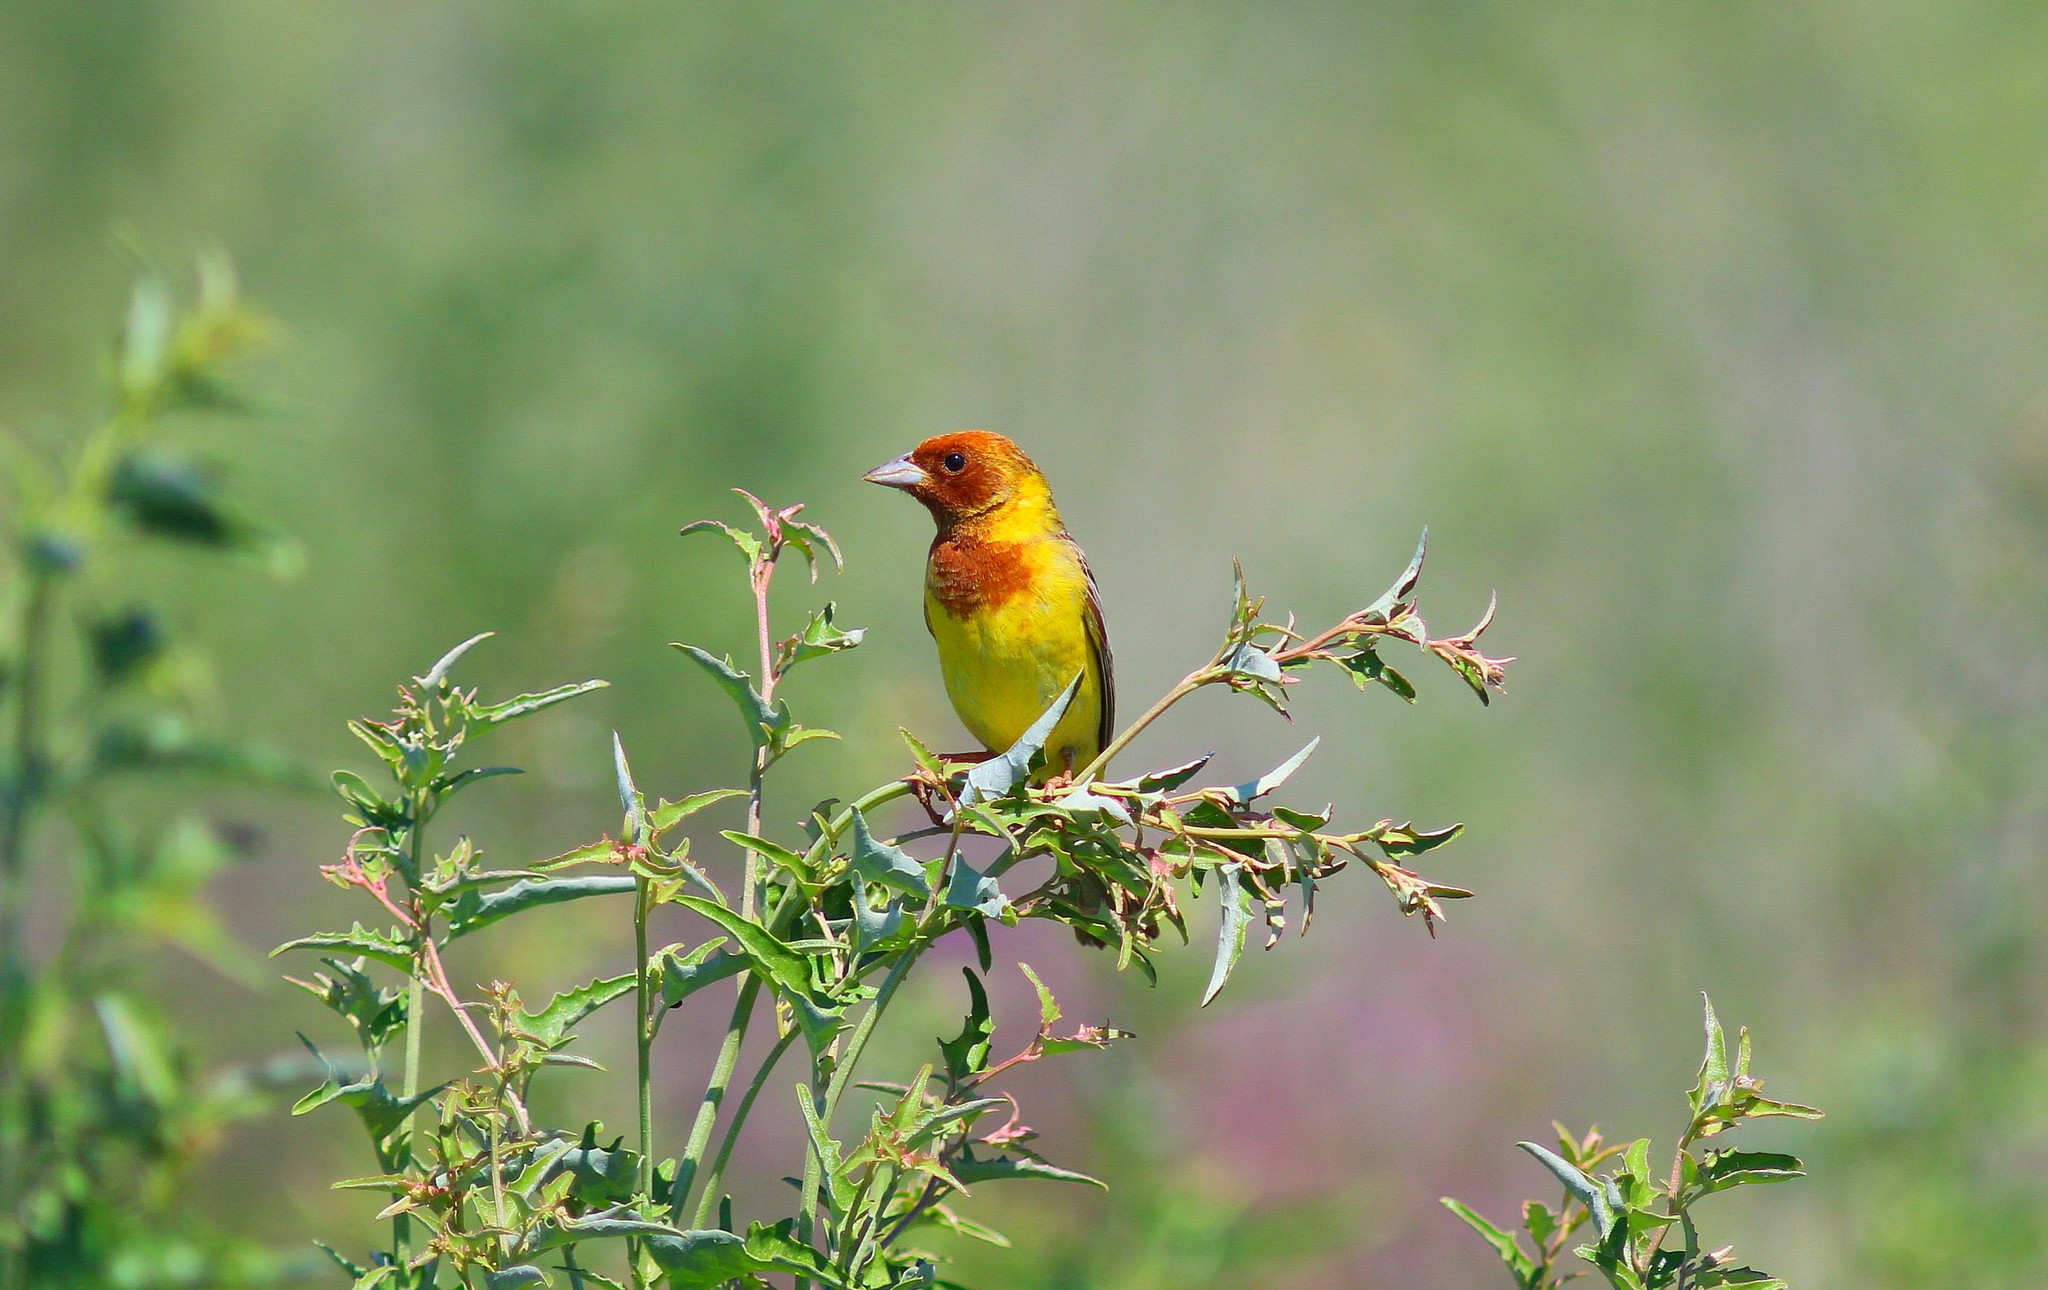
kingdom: Animalia
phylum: Chordata
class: Aves
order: Passeriformes
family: Emberizidae
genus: Emberiza
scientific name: Emberiza bruniceps
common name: Red-headed bunting
